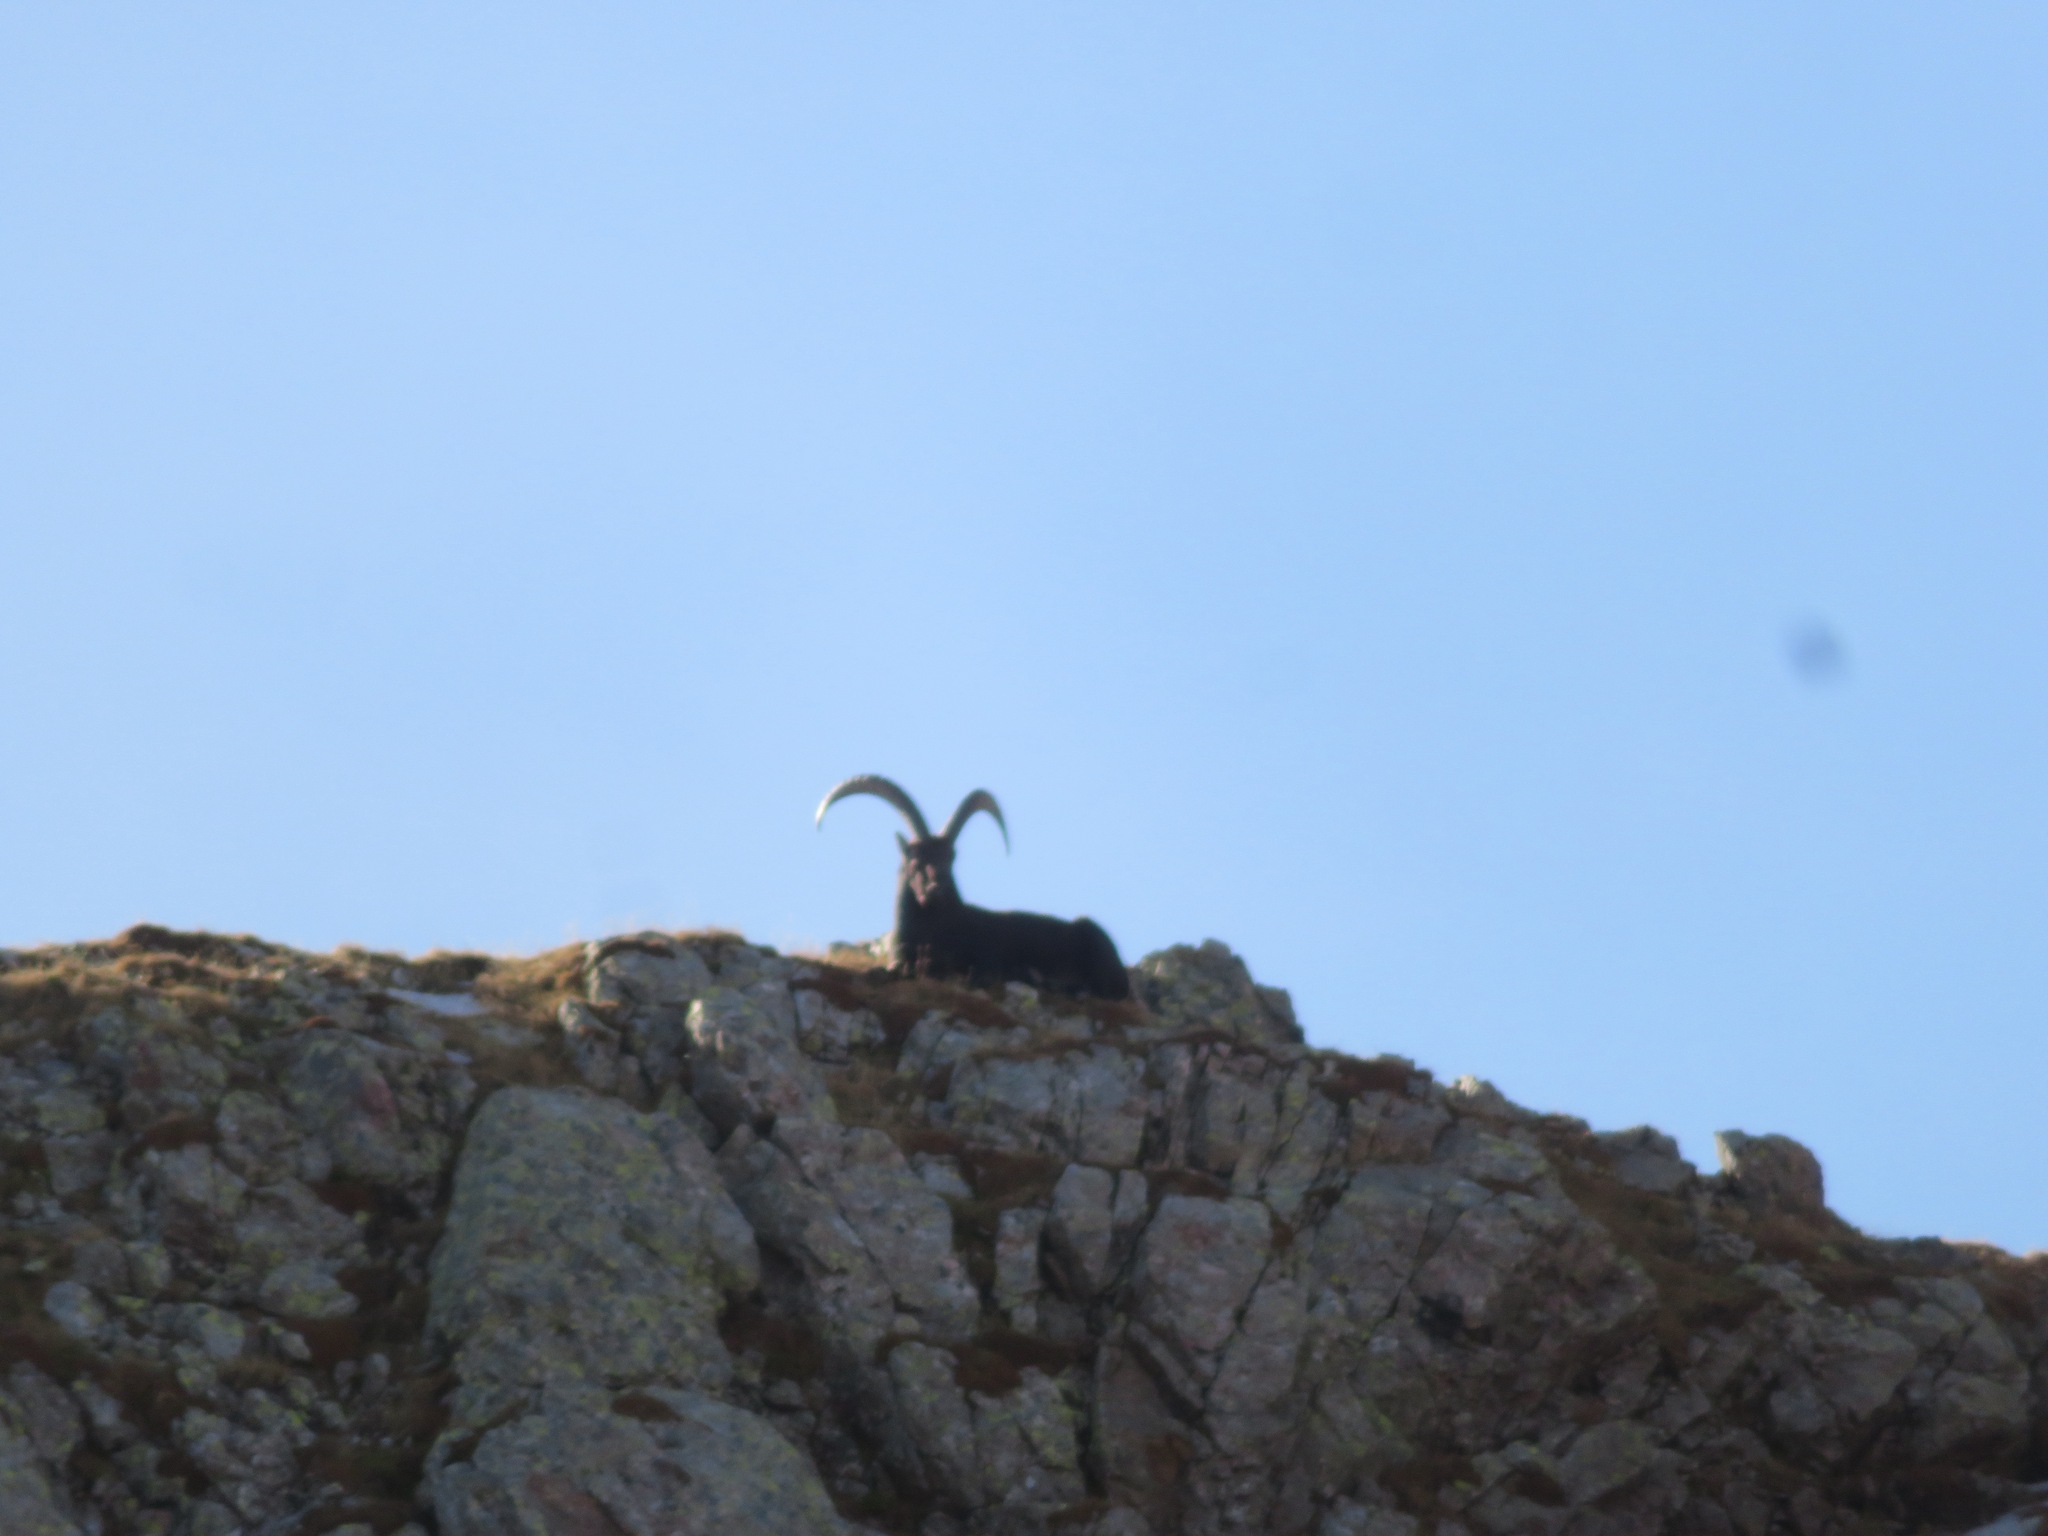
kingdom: Animalia
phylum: Chordata
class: Mammalia
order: Artiodactyla
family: Bovidae
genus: Capra
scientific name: Capra ibex
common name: Alpine ibex
